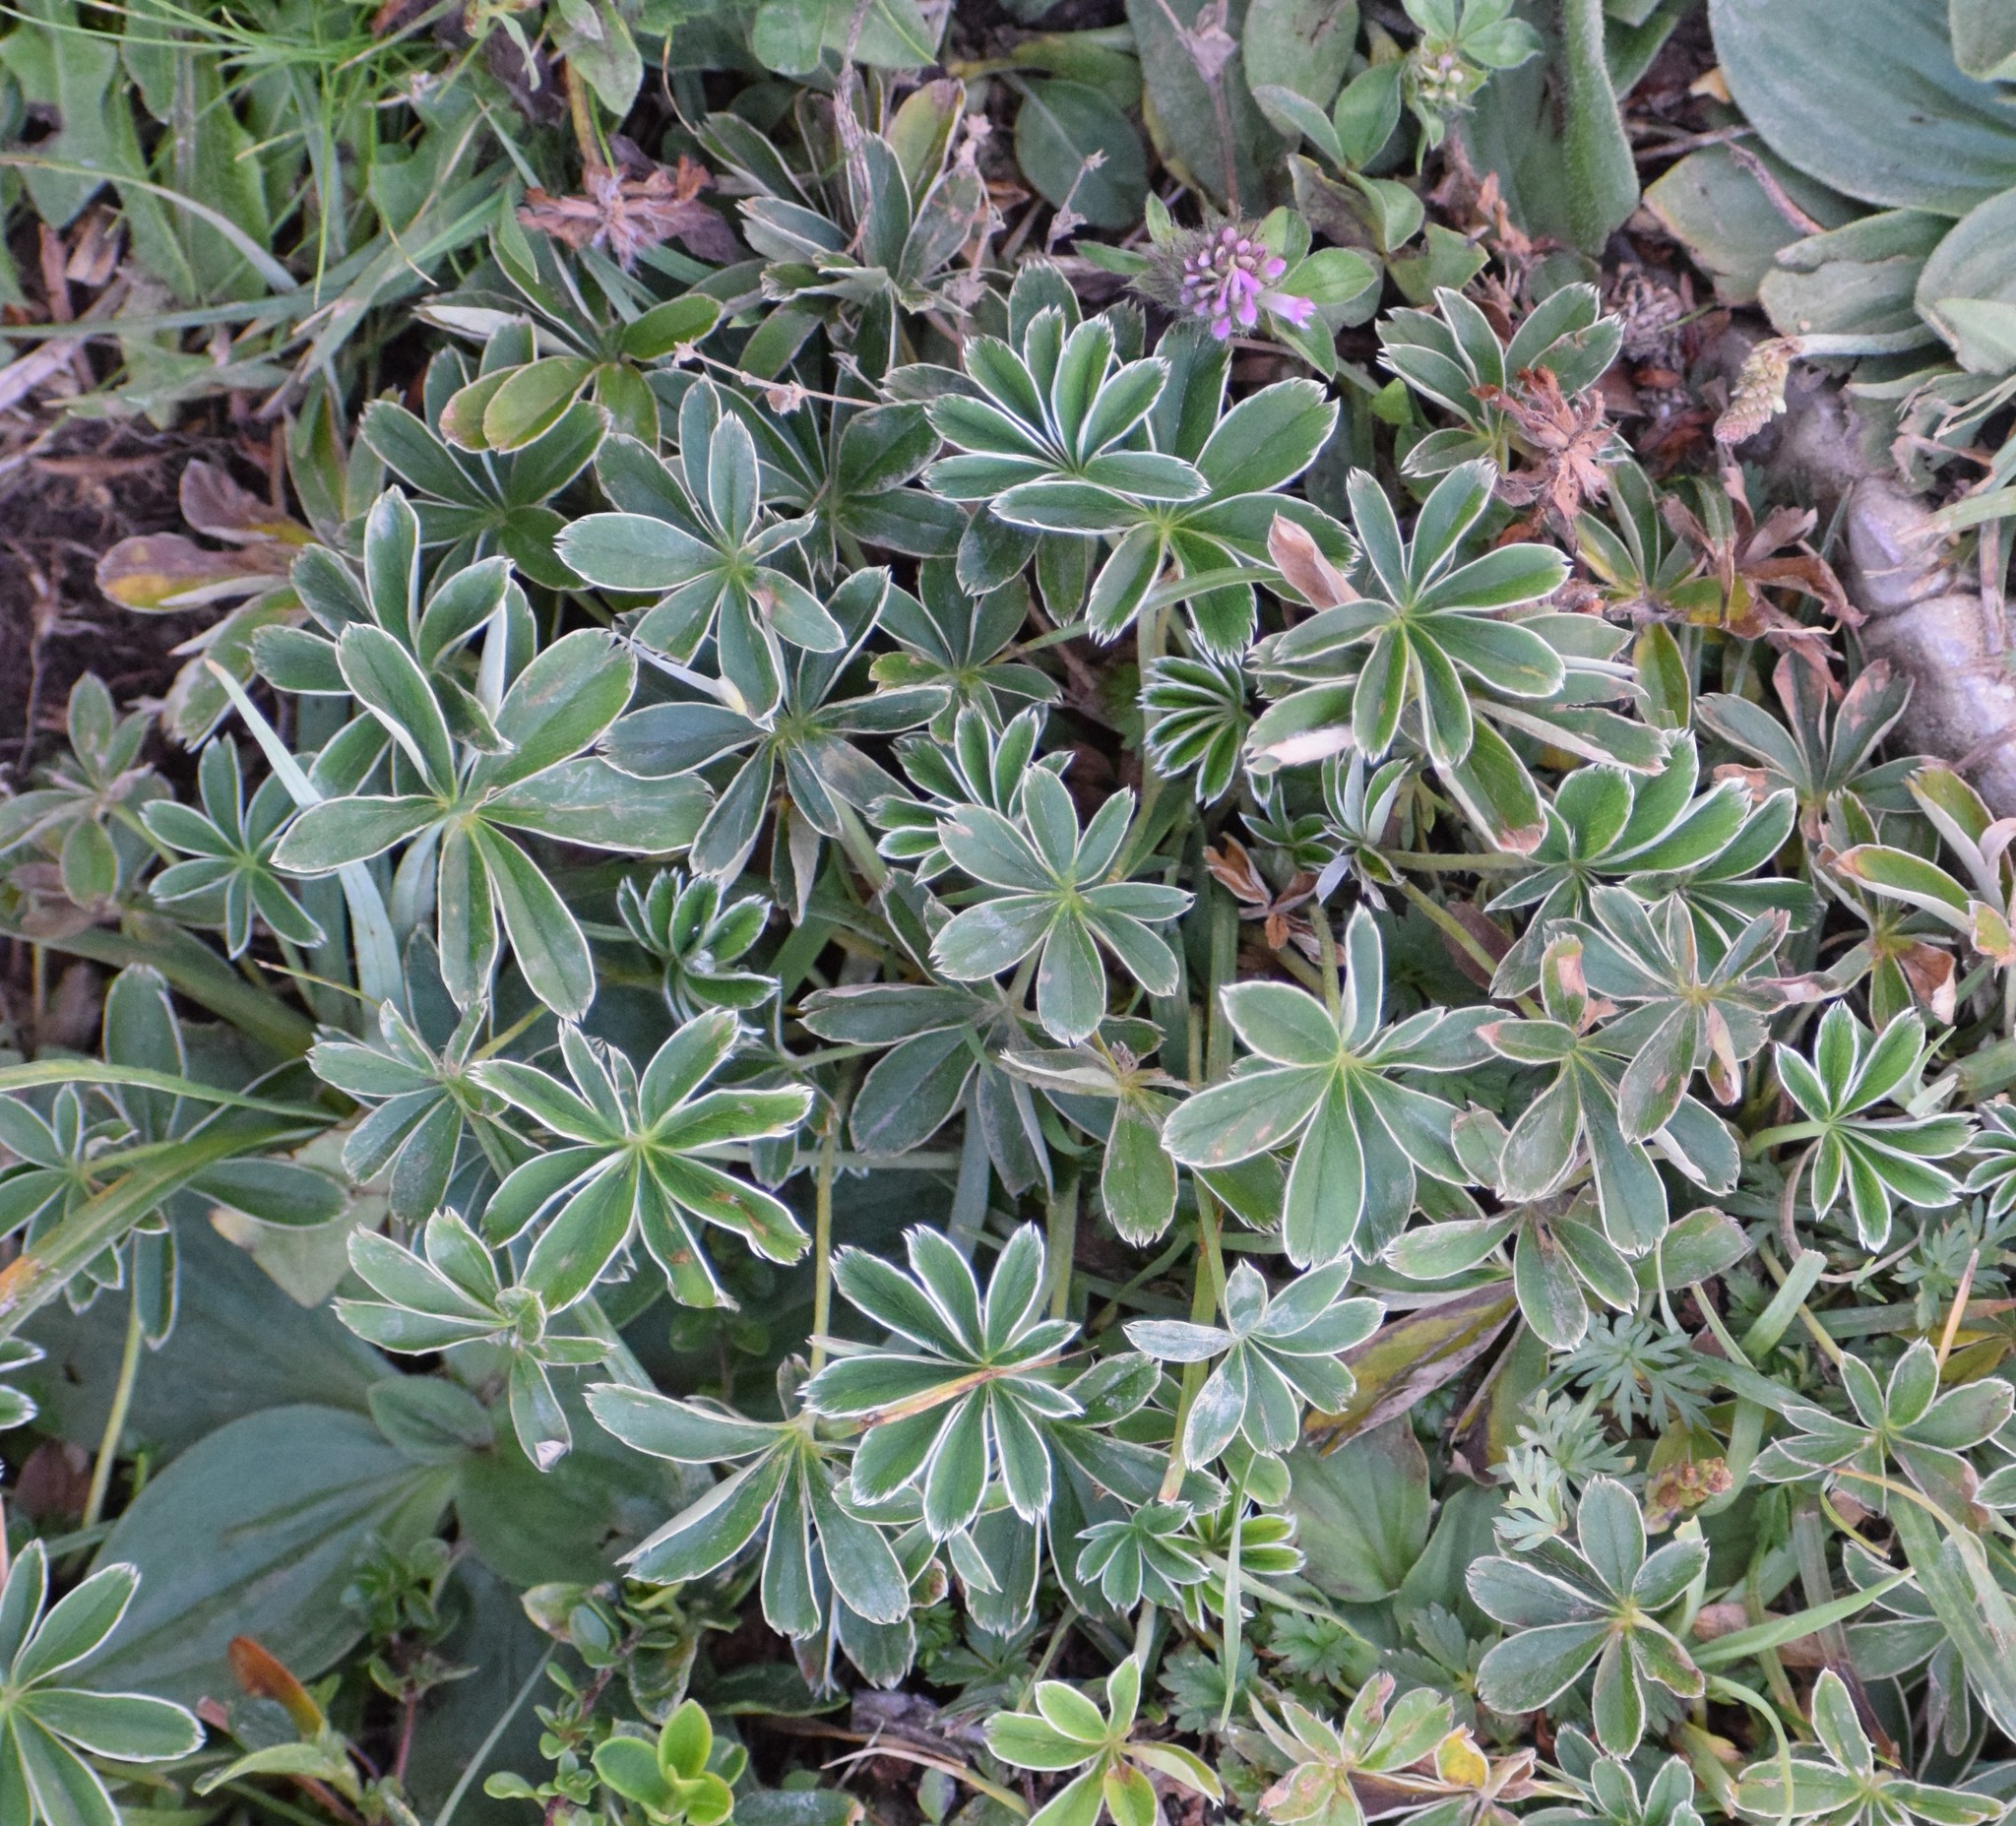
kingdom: Plantae
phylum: Tracheophyta
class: Magnoliopsida
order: Rosales
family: Rosaceae
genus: Alchemilla
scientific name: Alchemilla nitida
